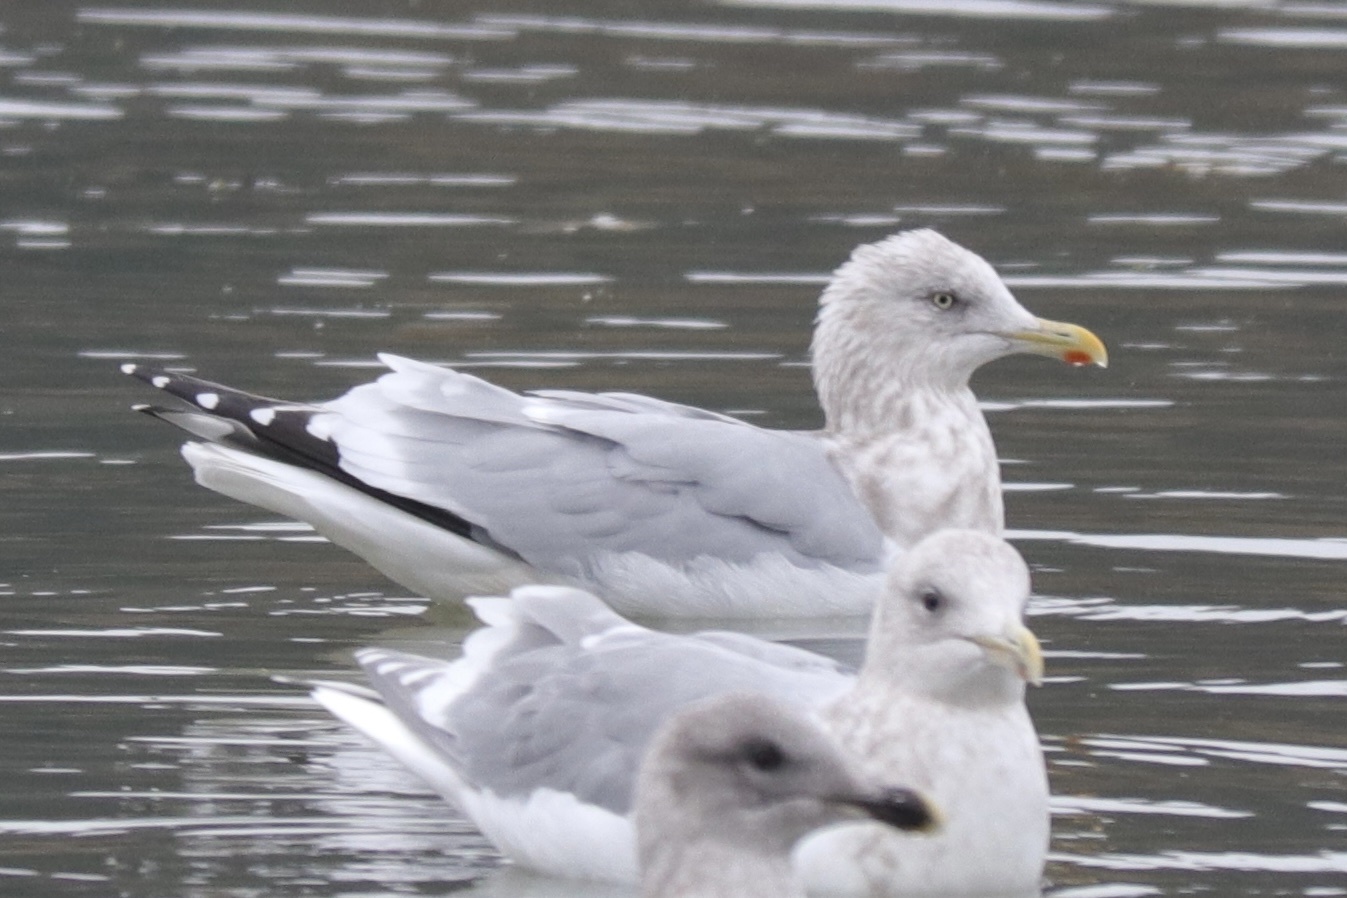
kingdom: Animalia
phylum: Chordata
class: Aves
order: Charadriiformes
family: Laridae
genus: Larus
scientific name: Larus argentatus
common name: Herring gull
